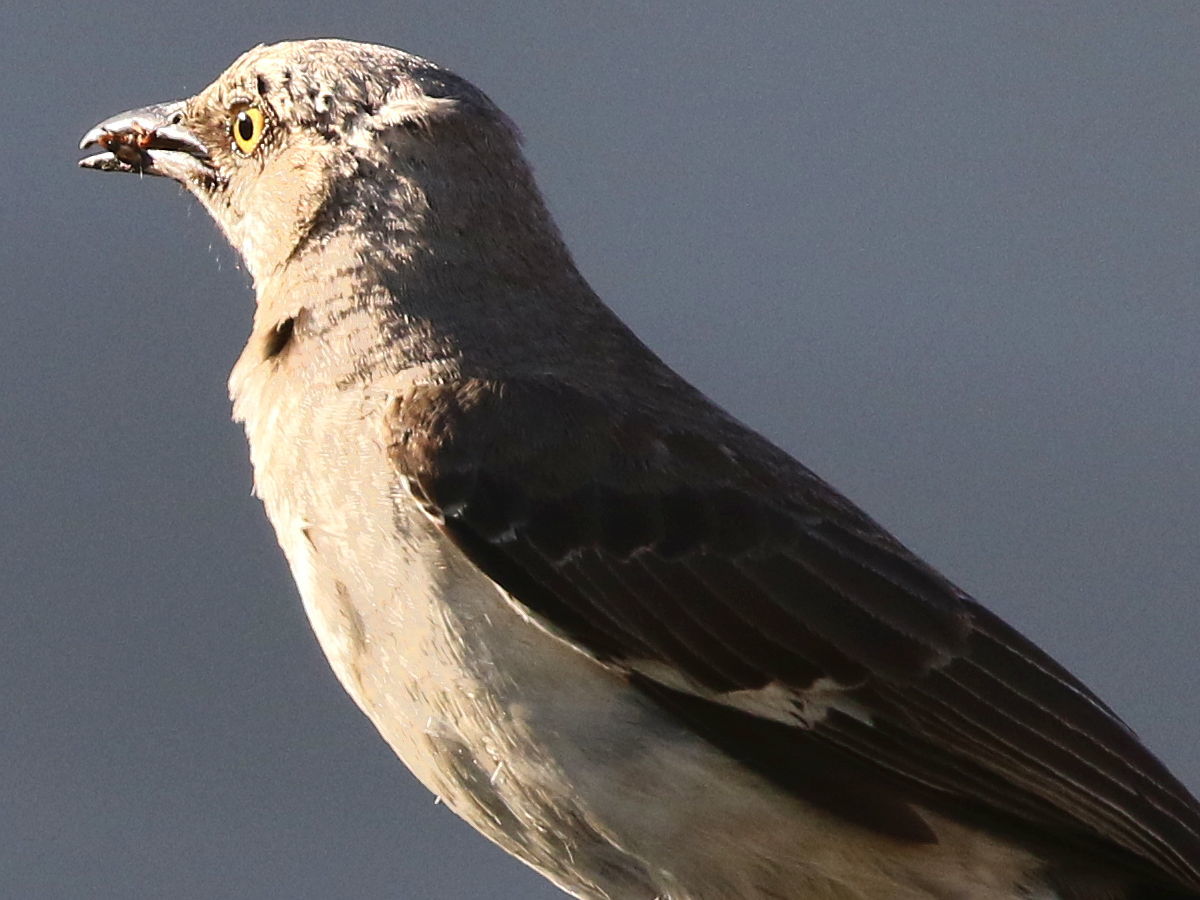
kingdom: Animalia
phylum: Chordata
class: Aves
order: Passeriformes
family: Mimidae
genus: Mimus
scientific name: Mimus polyglottos
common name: Northern mockingbird
